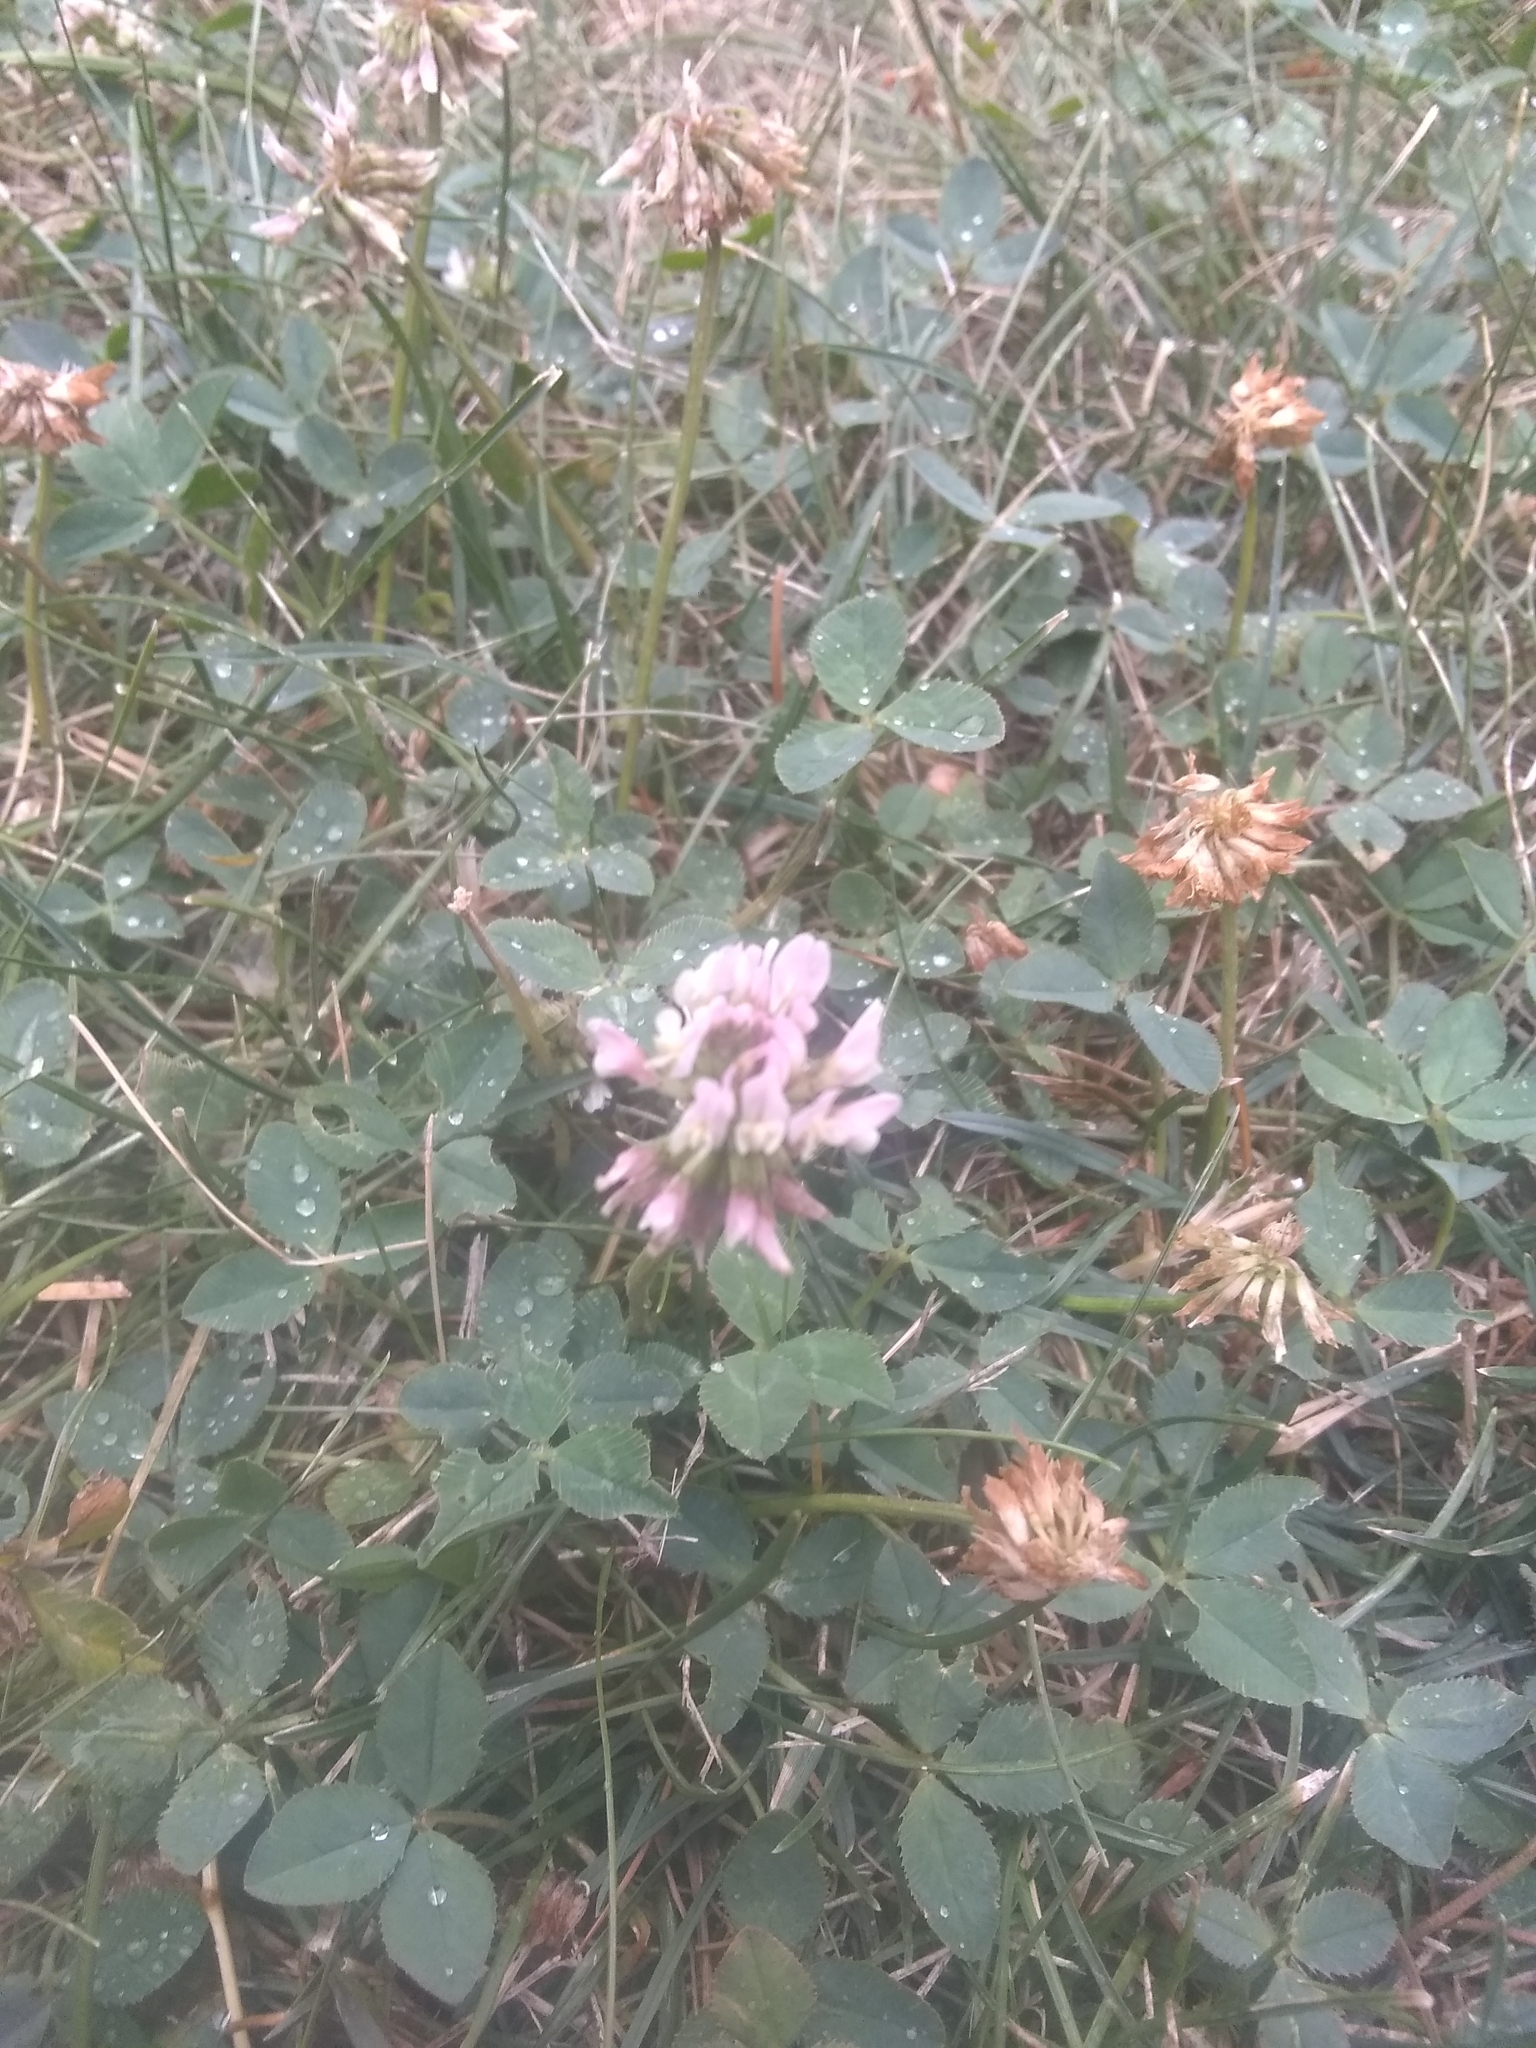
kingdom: Plantae
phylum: Tracheophyta
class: Magnoliopsida
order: Fabales
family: Fabaceae
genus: Trifolium
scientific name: Trifolium repens
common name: White clover
